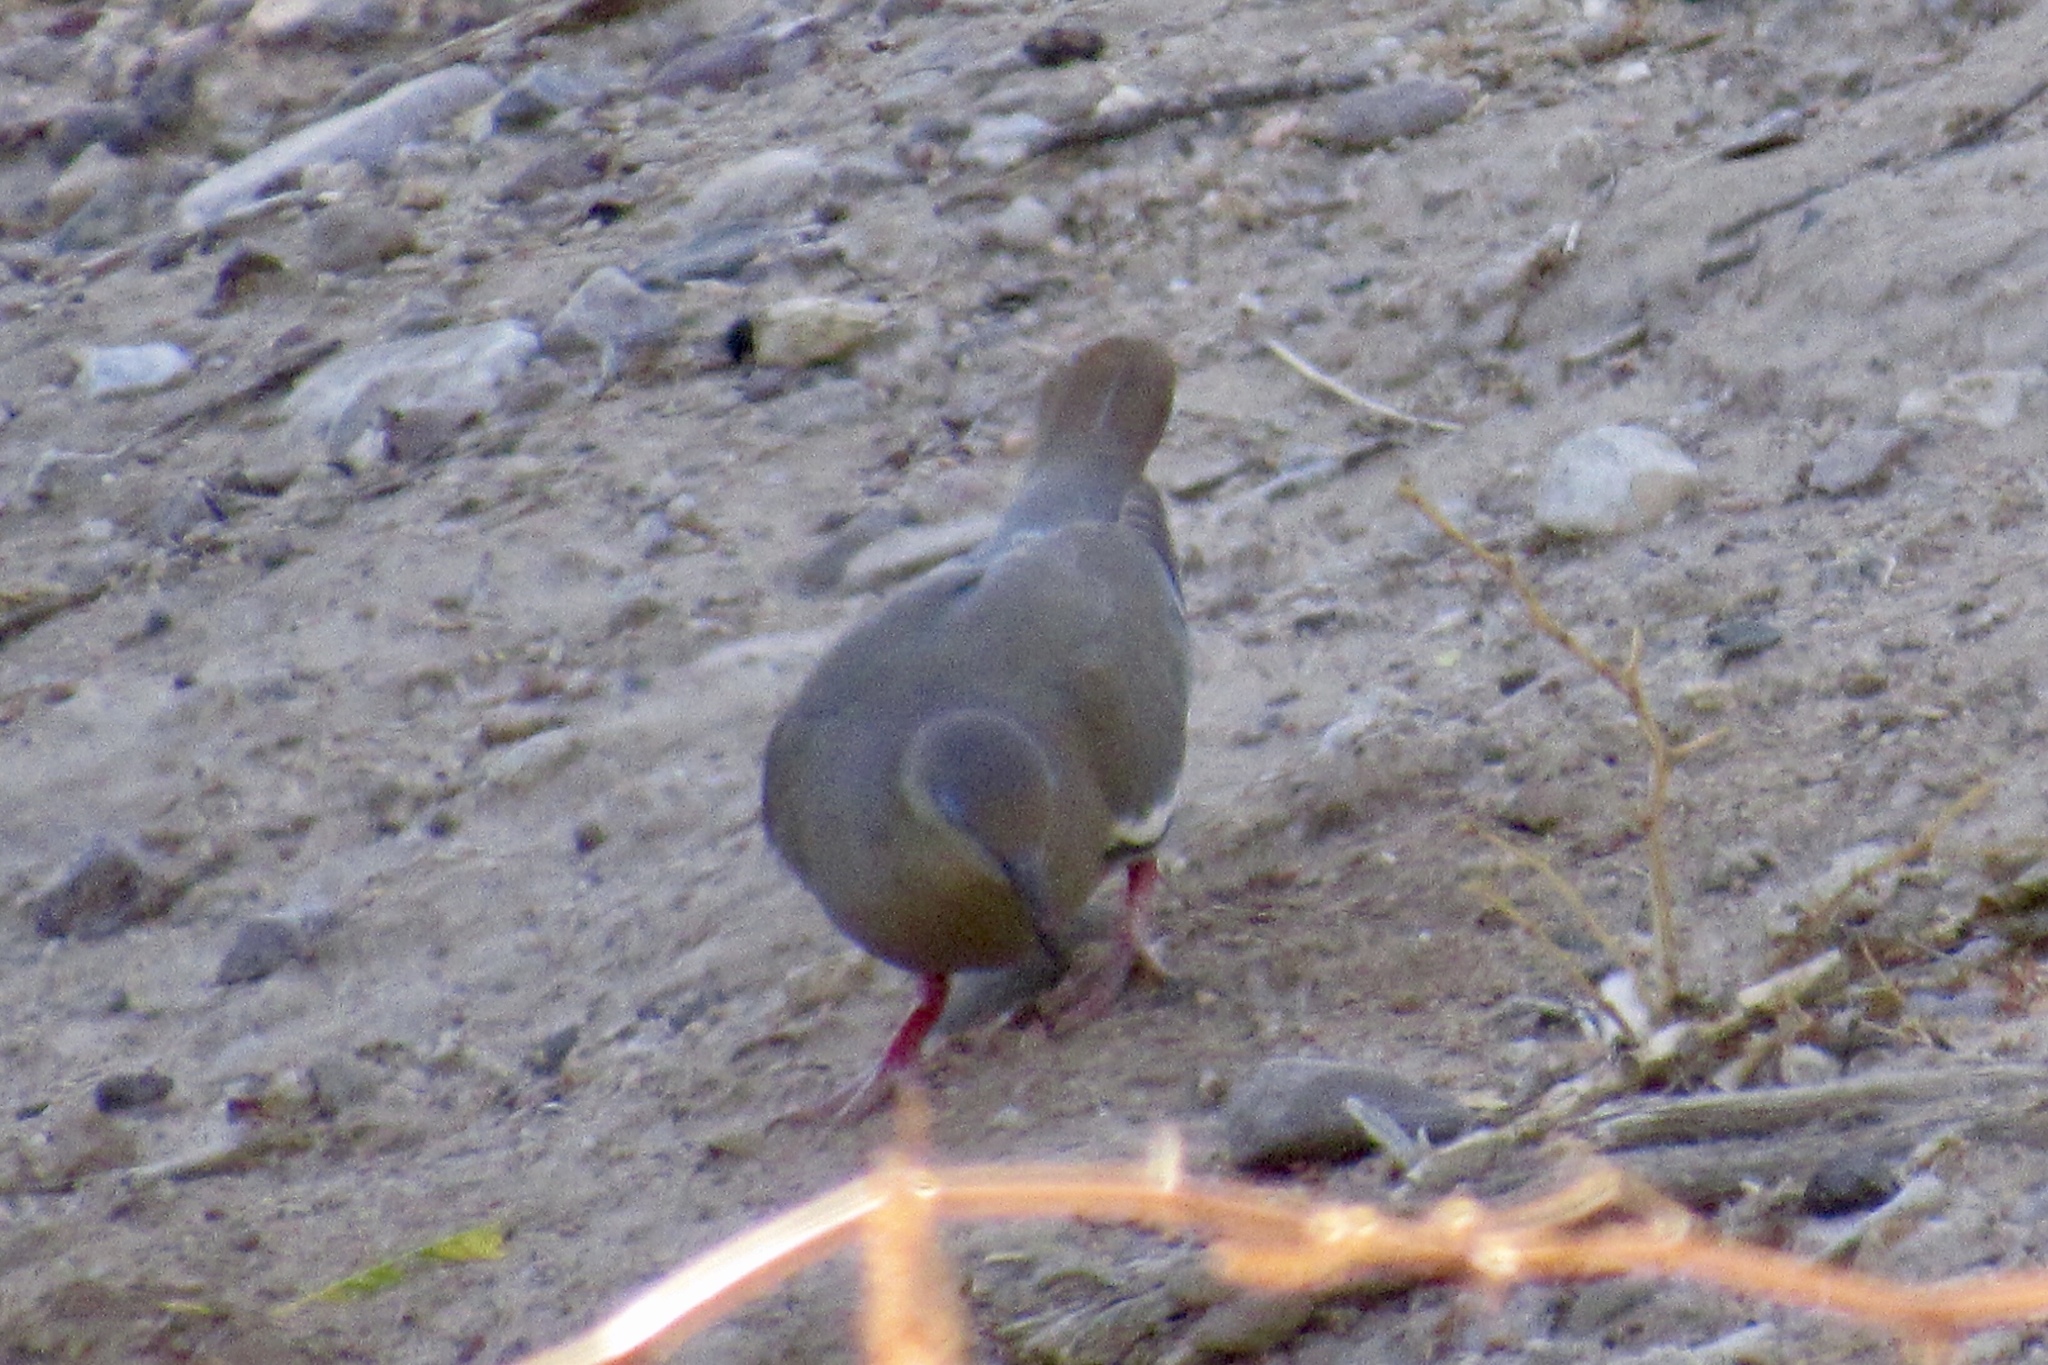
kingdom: Animalia
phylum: Chordata
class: Aves
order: Columbiformes
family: Columbidae
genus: Zenaida
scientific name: Zenaida asiatica
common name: White-winged dove
